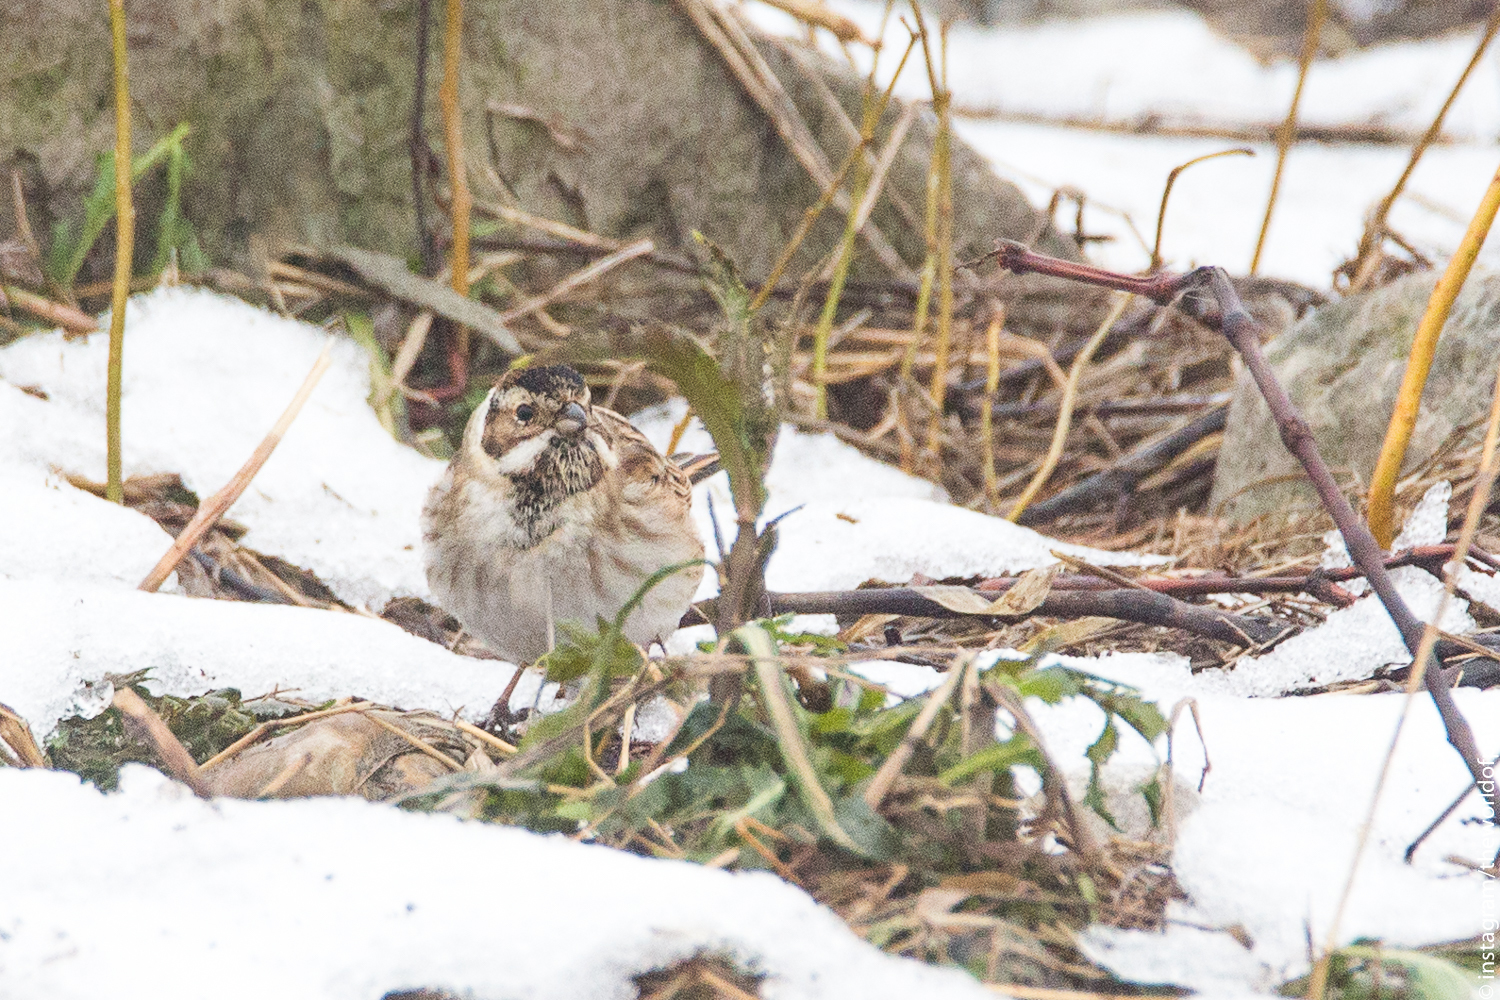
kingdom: Animalia
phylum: Chordata
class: Aves
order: Passeriformes
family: Emberizidae
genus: Emberiza
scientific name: Emberiza schoeniclus
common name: Reed bunting
